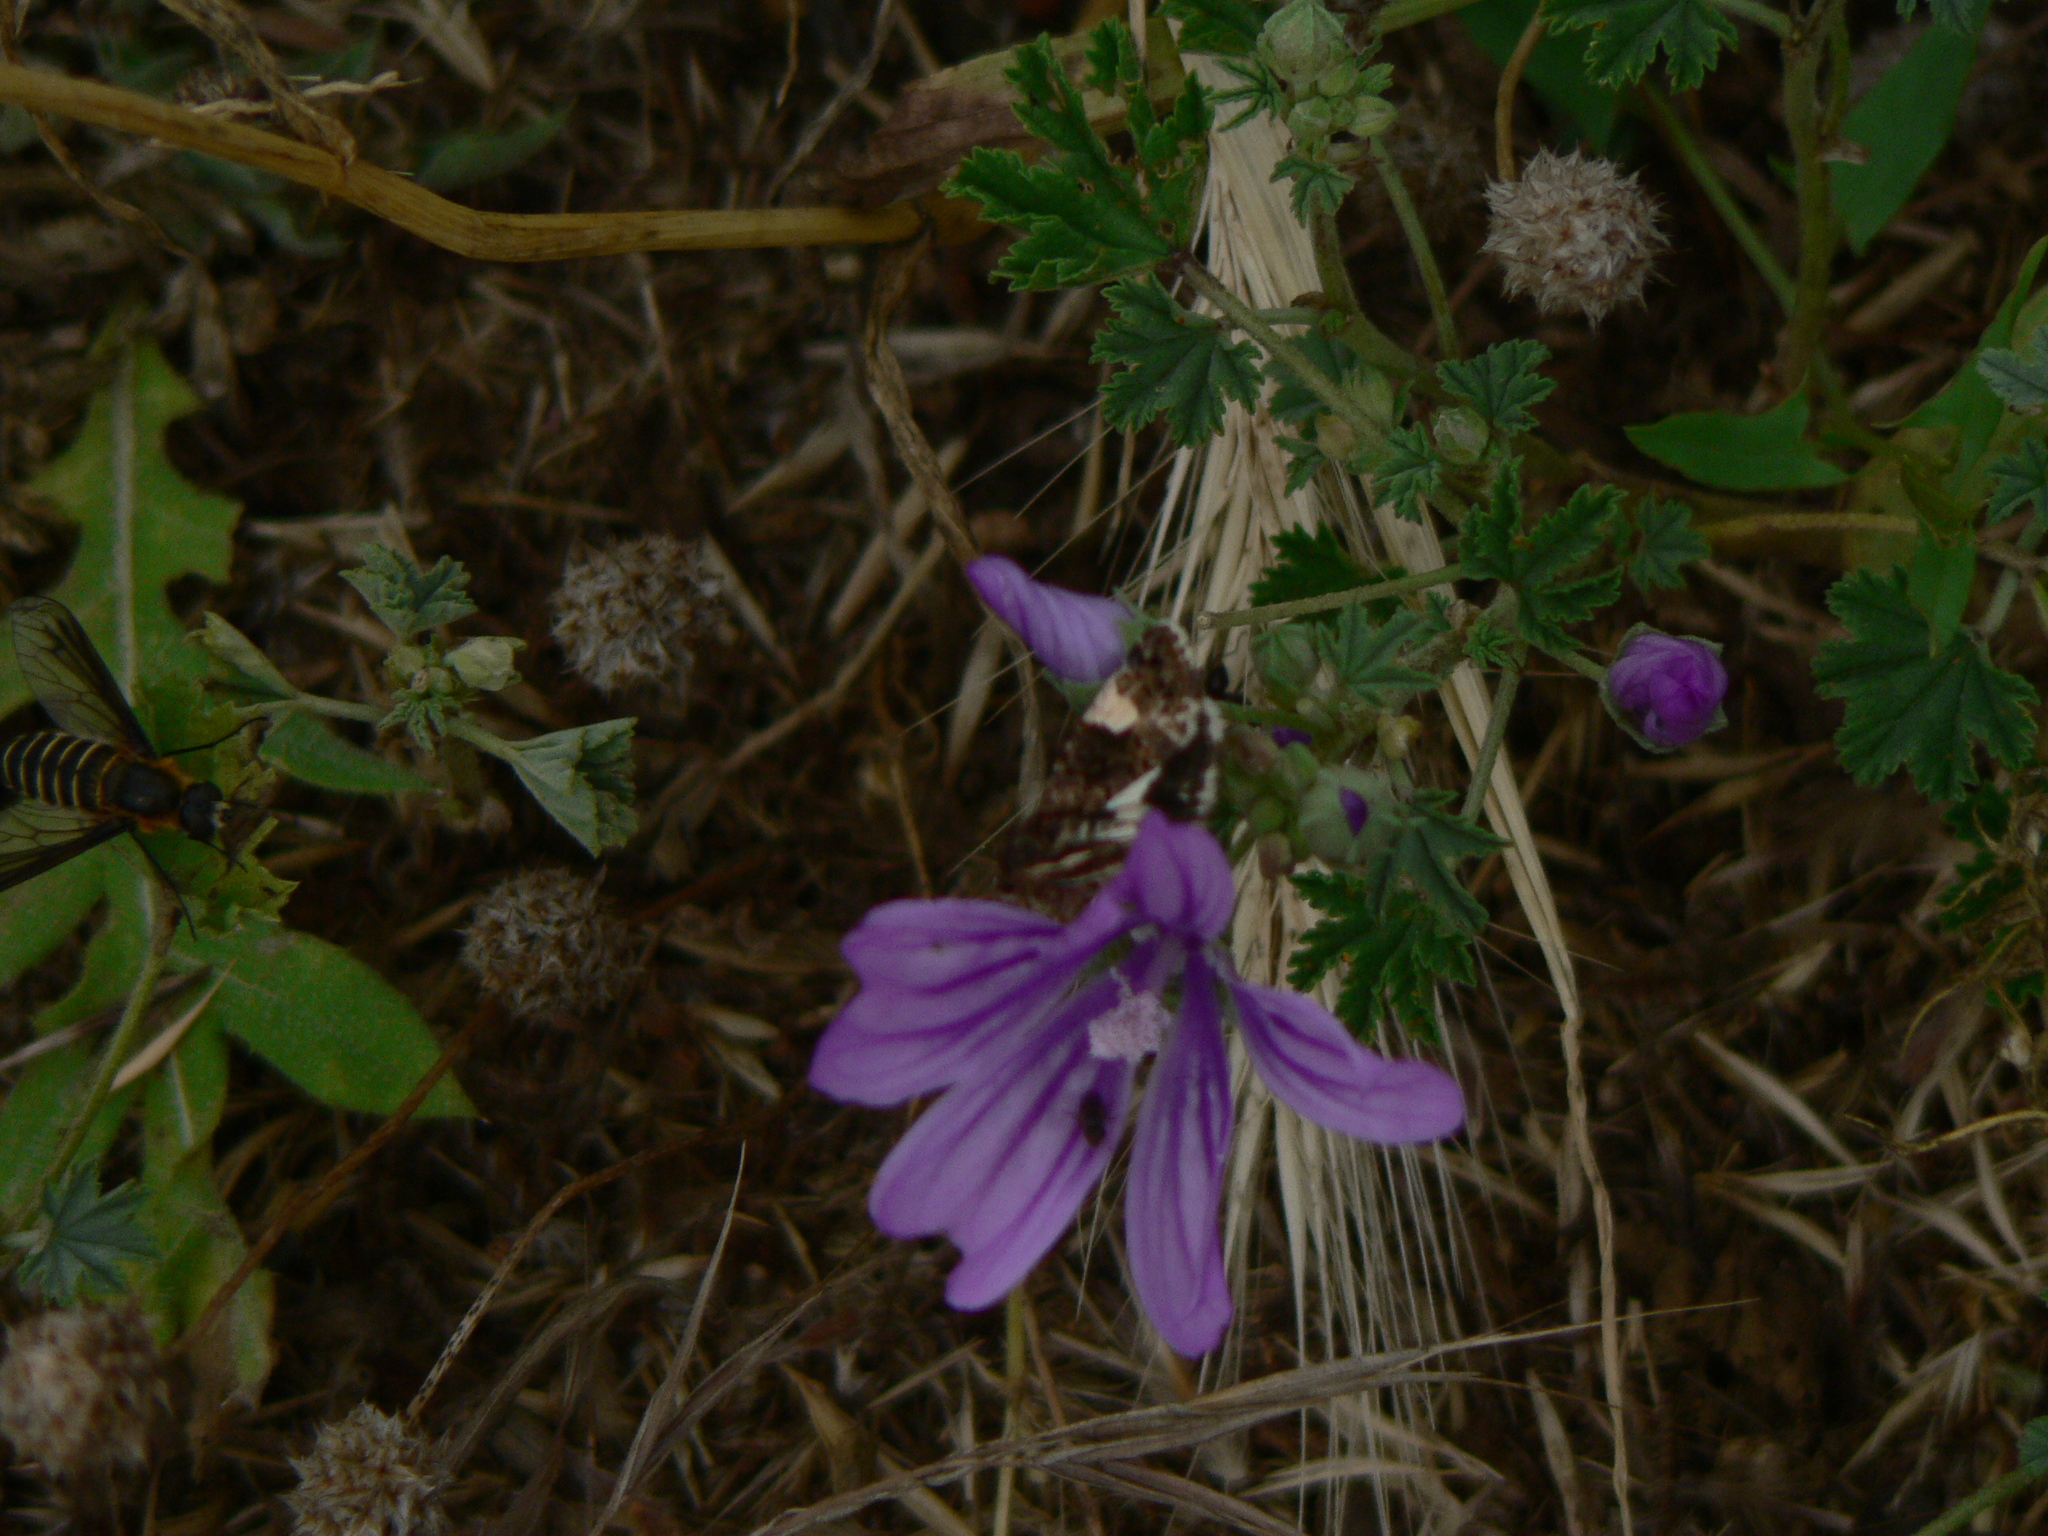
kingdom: Animalia
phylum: Arthropoda
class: Insecta
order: Lepidoptera
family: Erebidae
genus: Tyta
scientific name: Tyta luctuosa
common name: Four-spotted
